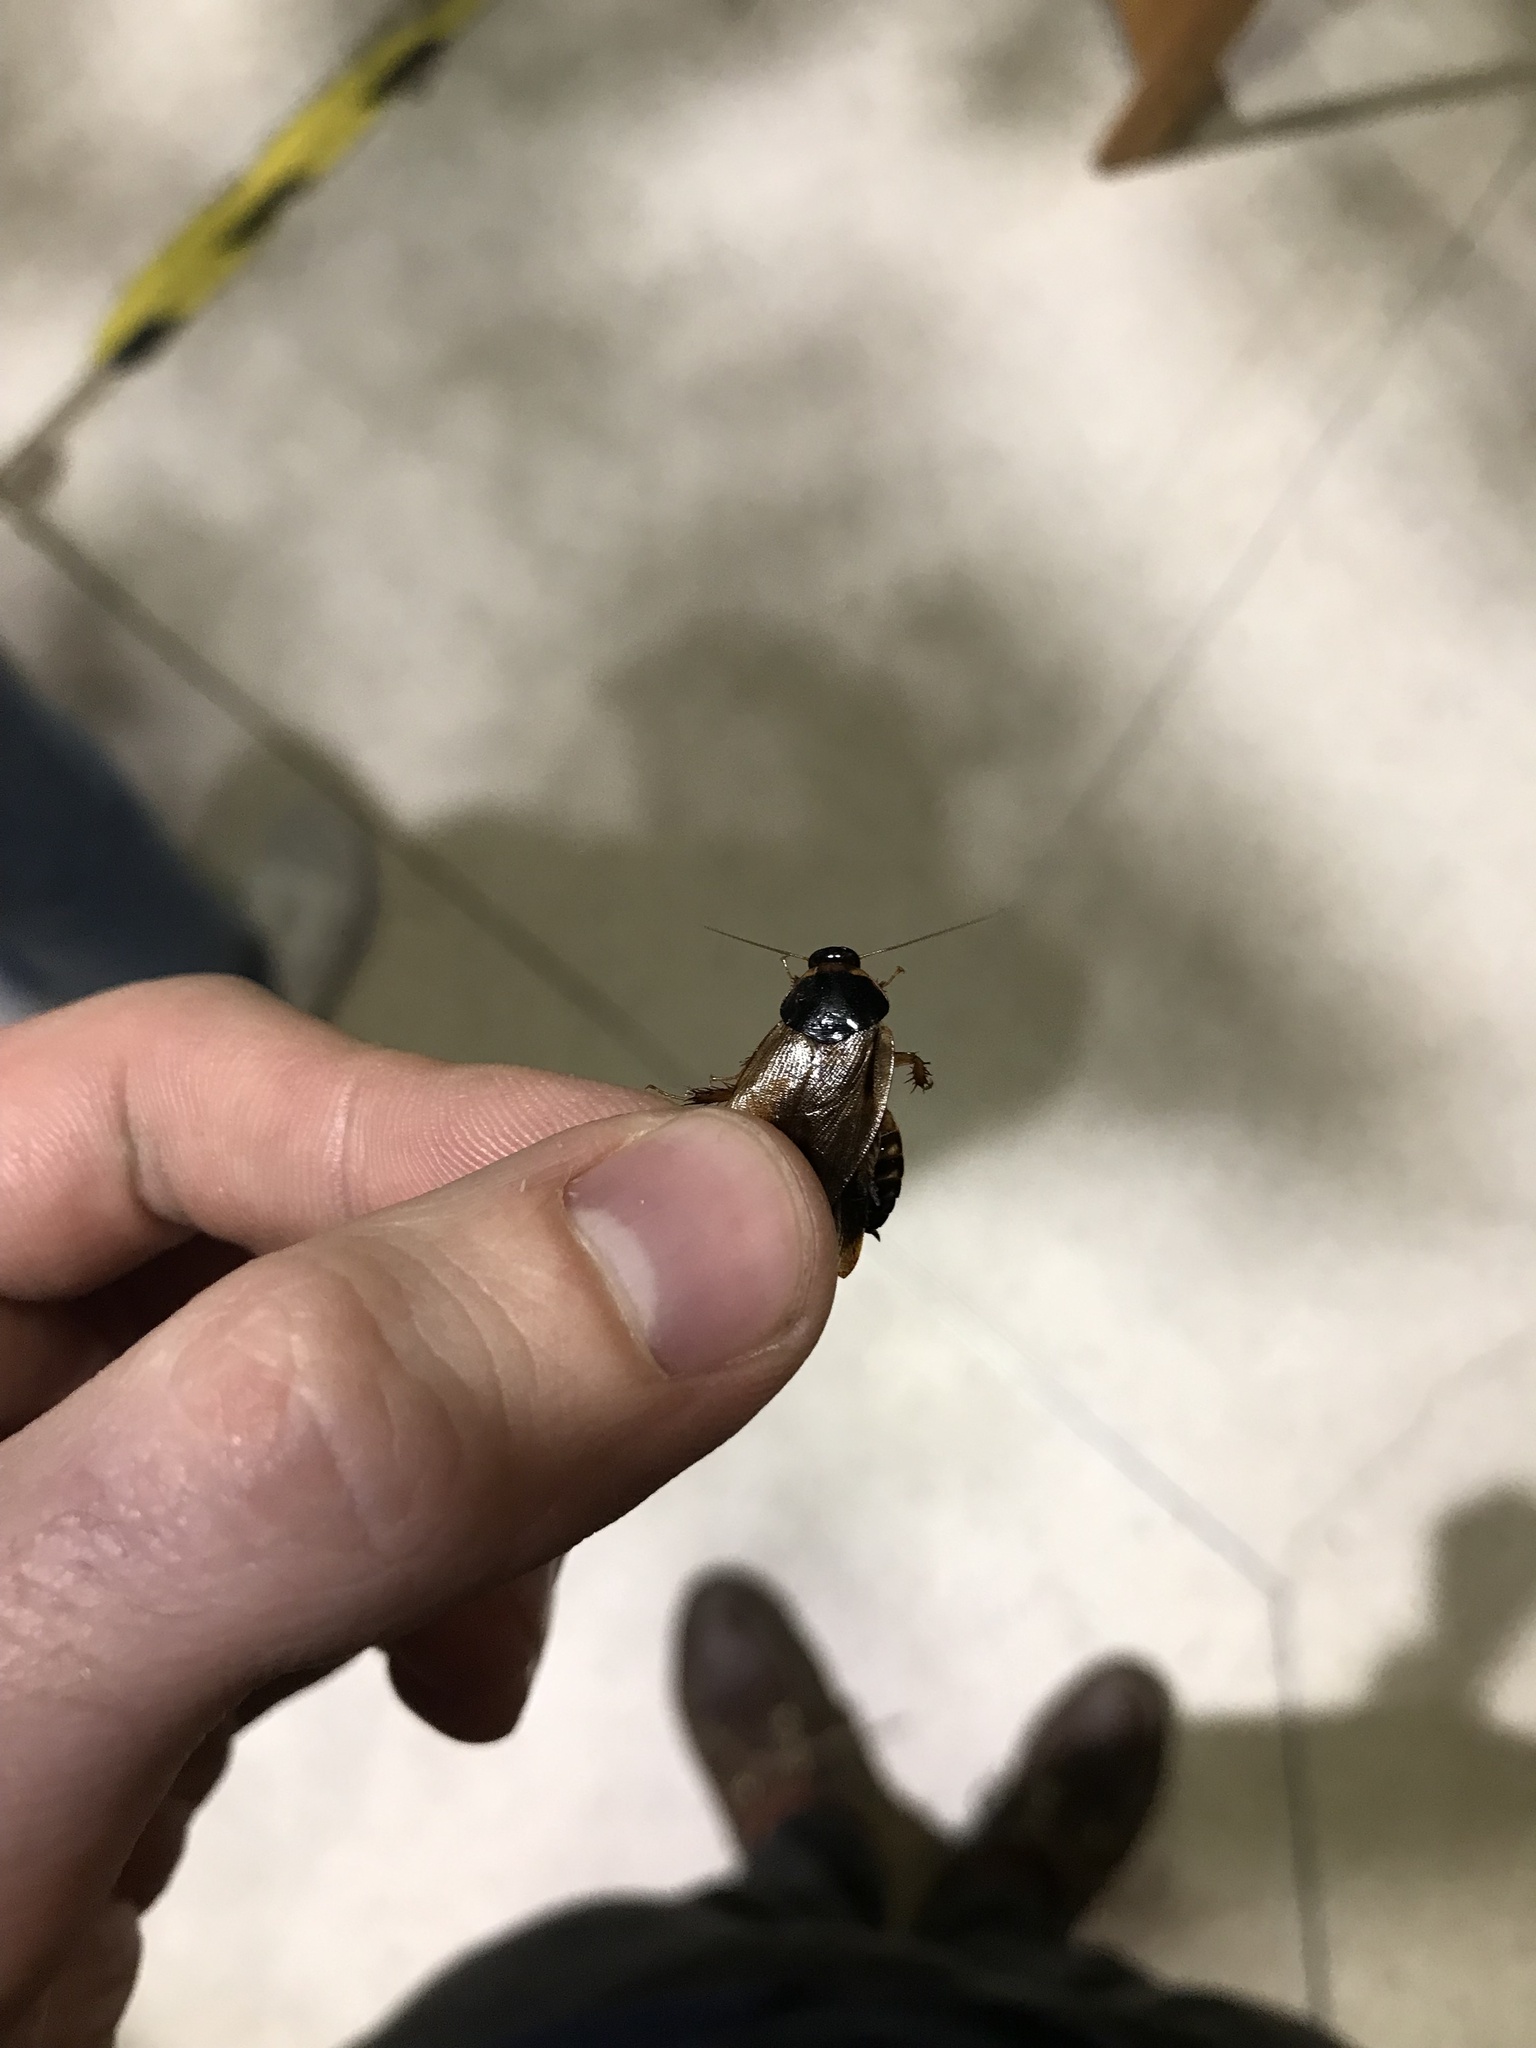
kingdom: Animalia
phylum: Arthropoda
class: Insecta
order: Blattodea
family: Blaberidae
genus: Pycnoscelus
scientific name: Pycnoscelus surinamensis
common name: Surinam cockroach
